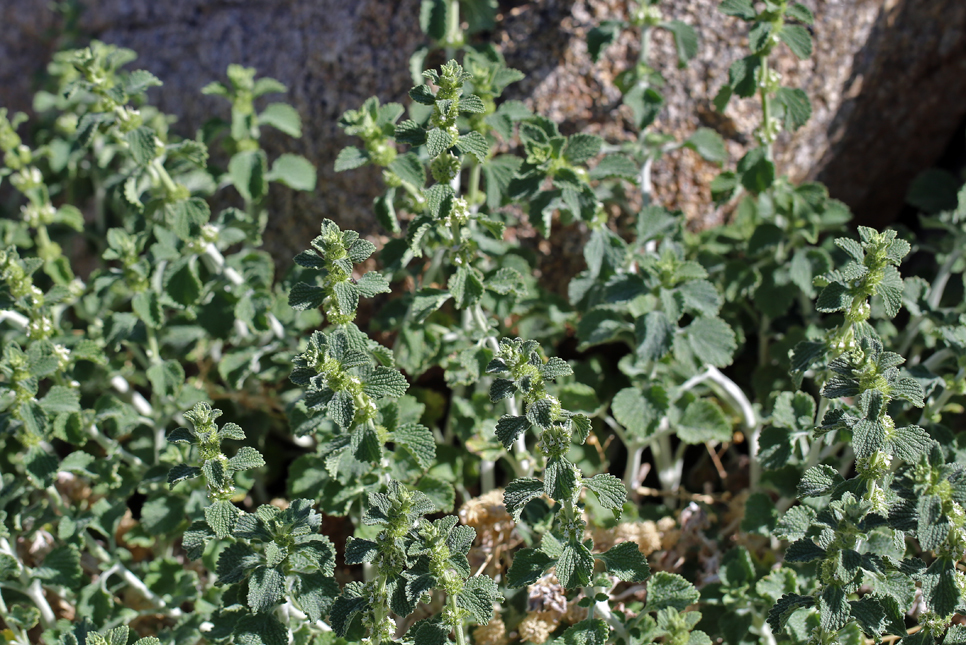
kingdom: Plantae
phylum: Tracheophyta
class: Magnoliopsida
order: Lamiales
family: Lamiaceae
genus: Marrubium
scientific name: Marrubium vulgare
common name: Horehound
